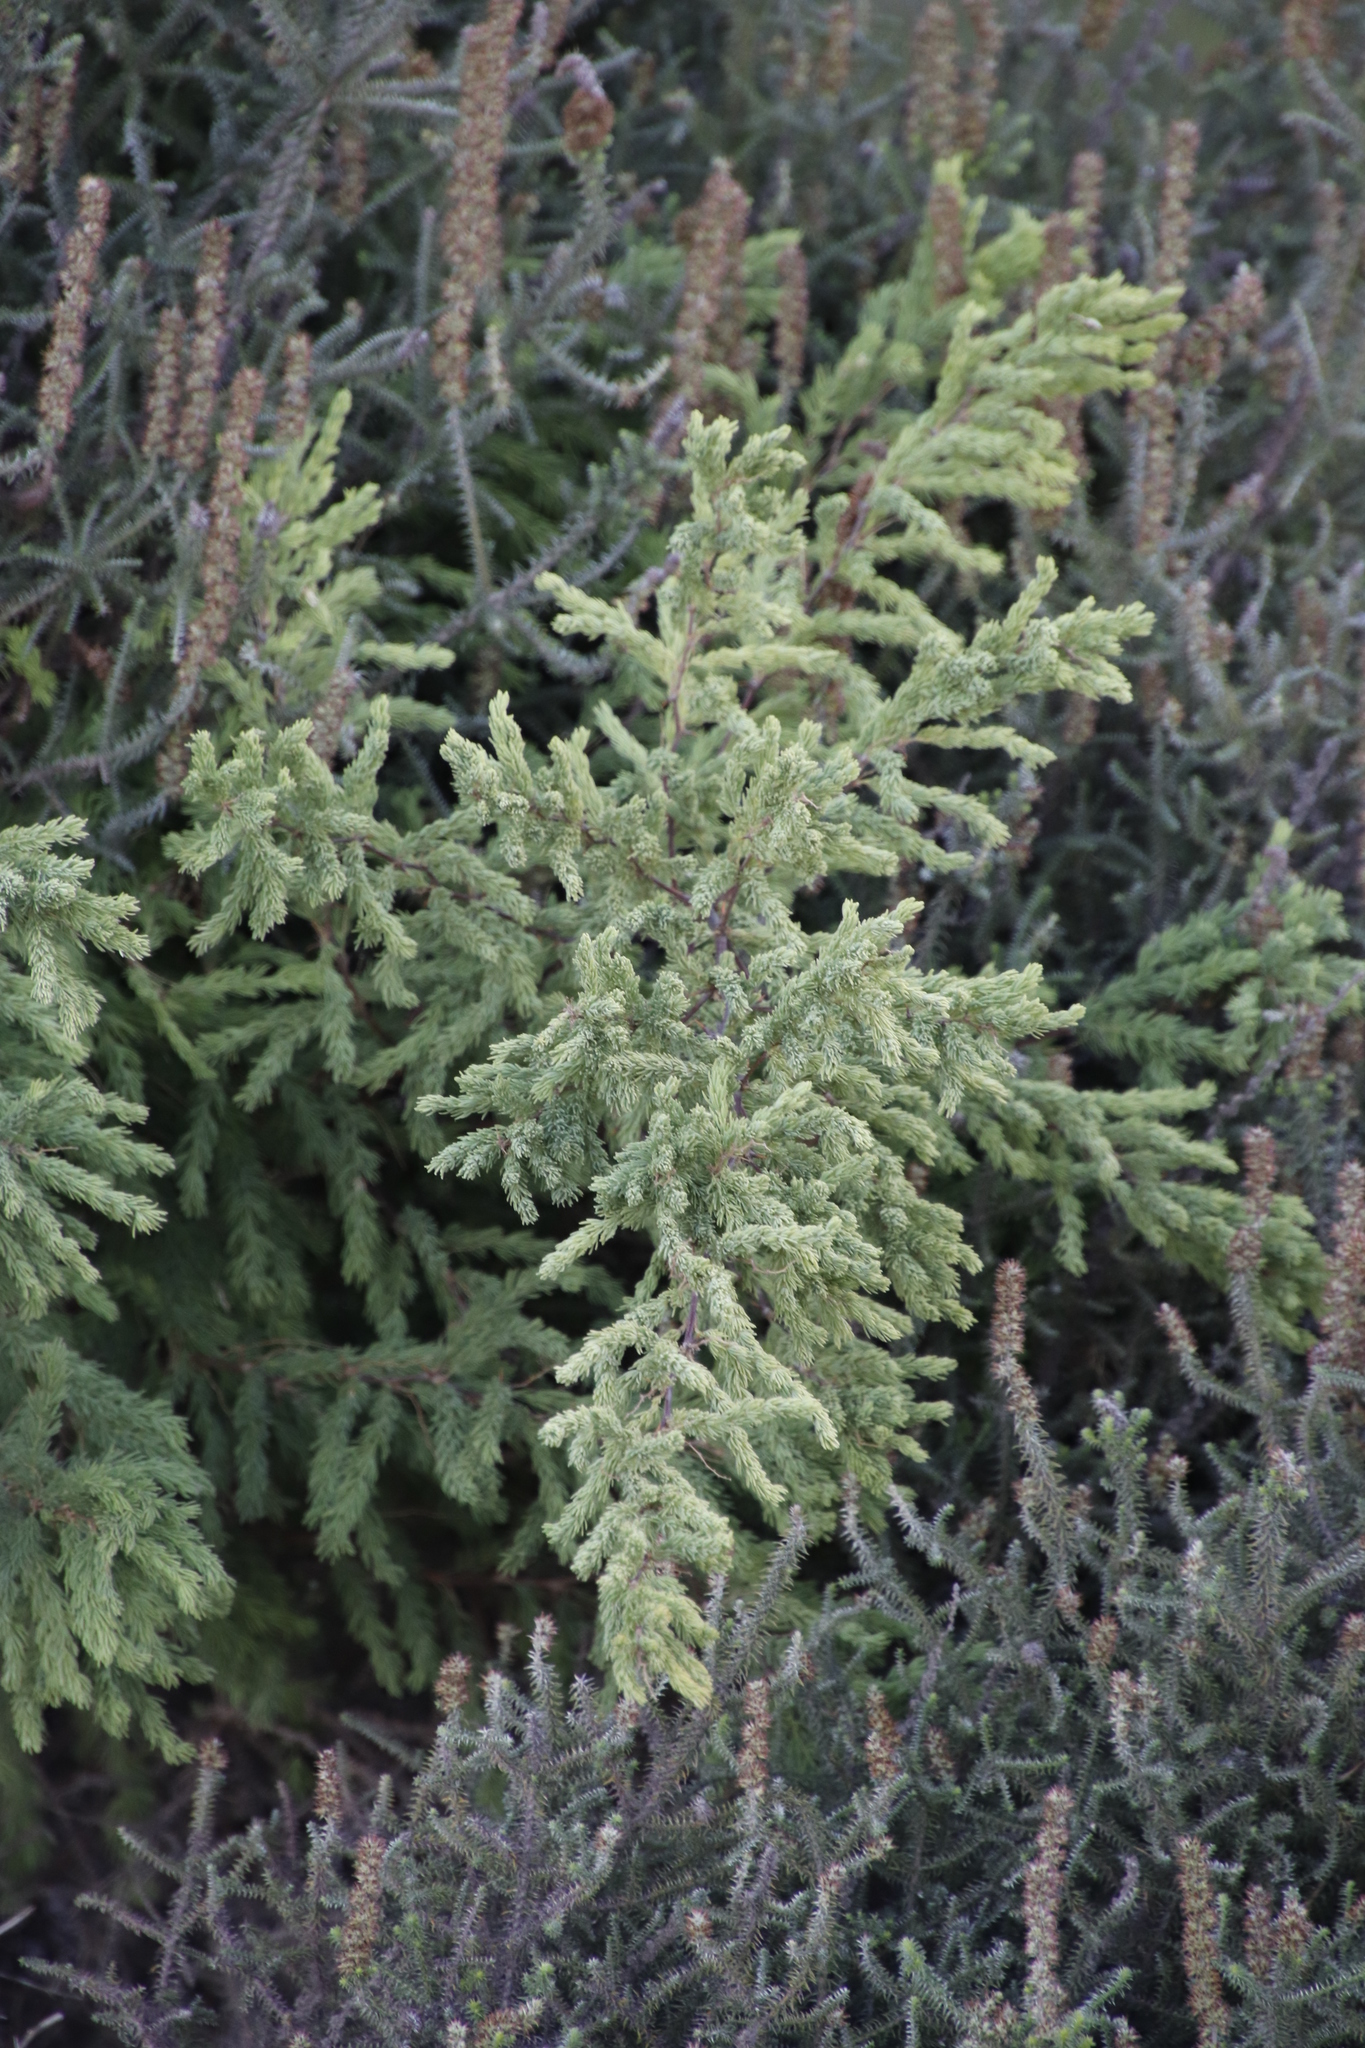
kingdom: Plantae
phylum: Tracheophyta
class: Liliopsida
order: Asparagales
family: Asparagaceae
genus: Asparagus
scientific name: Asparagus rubicundus
